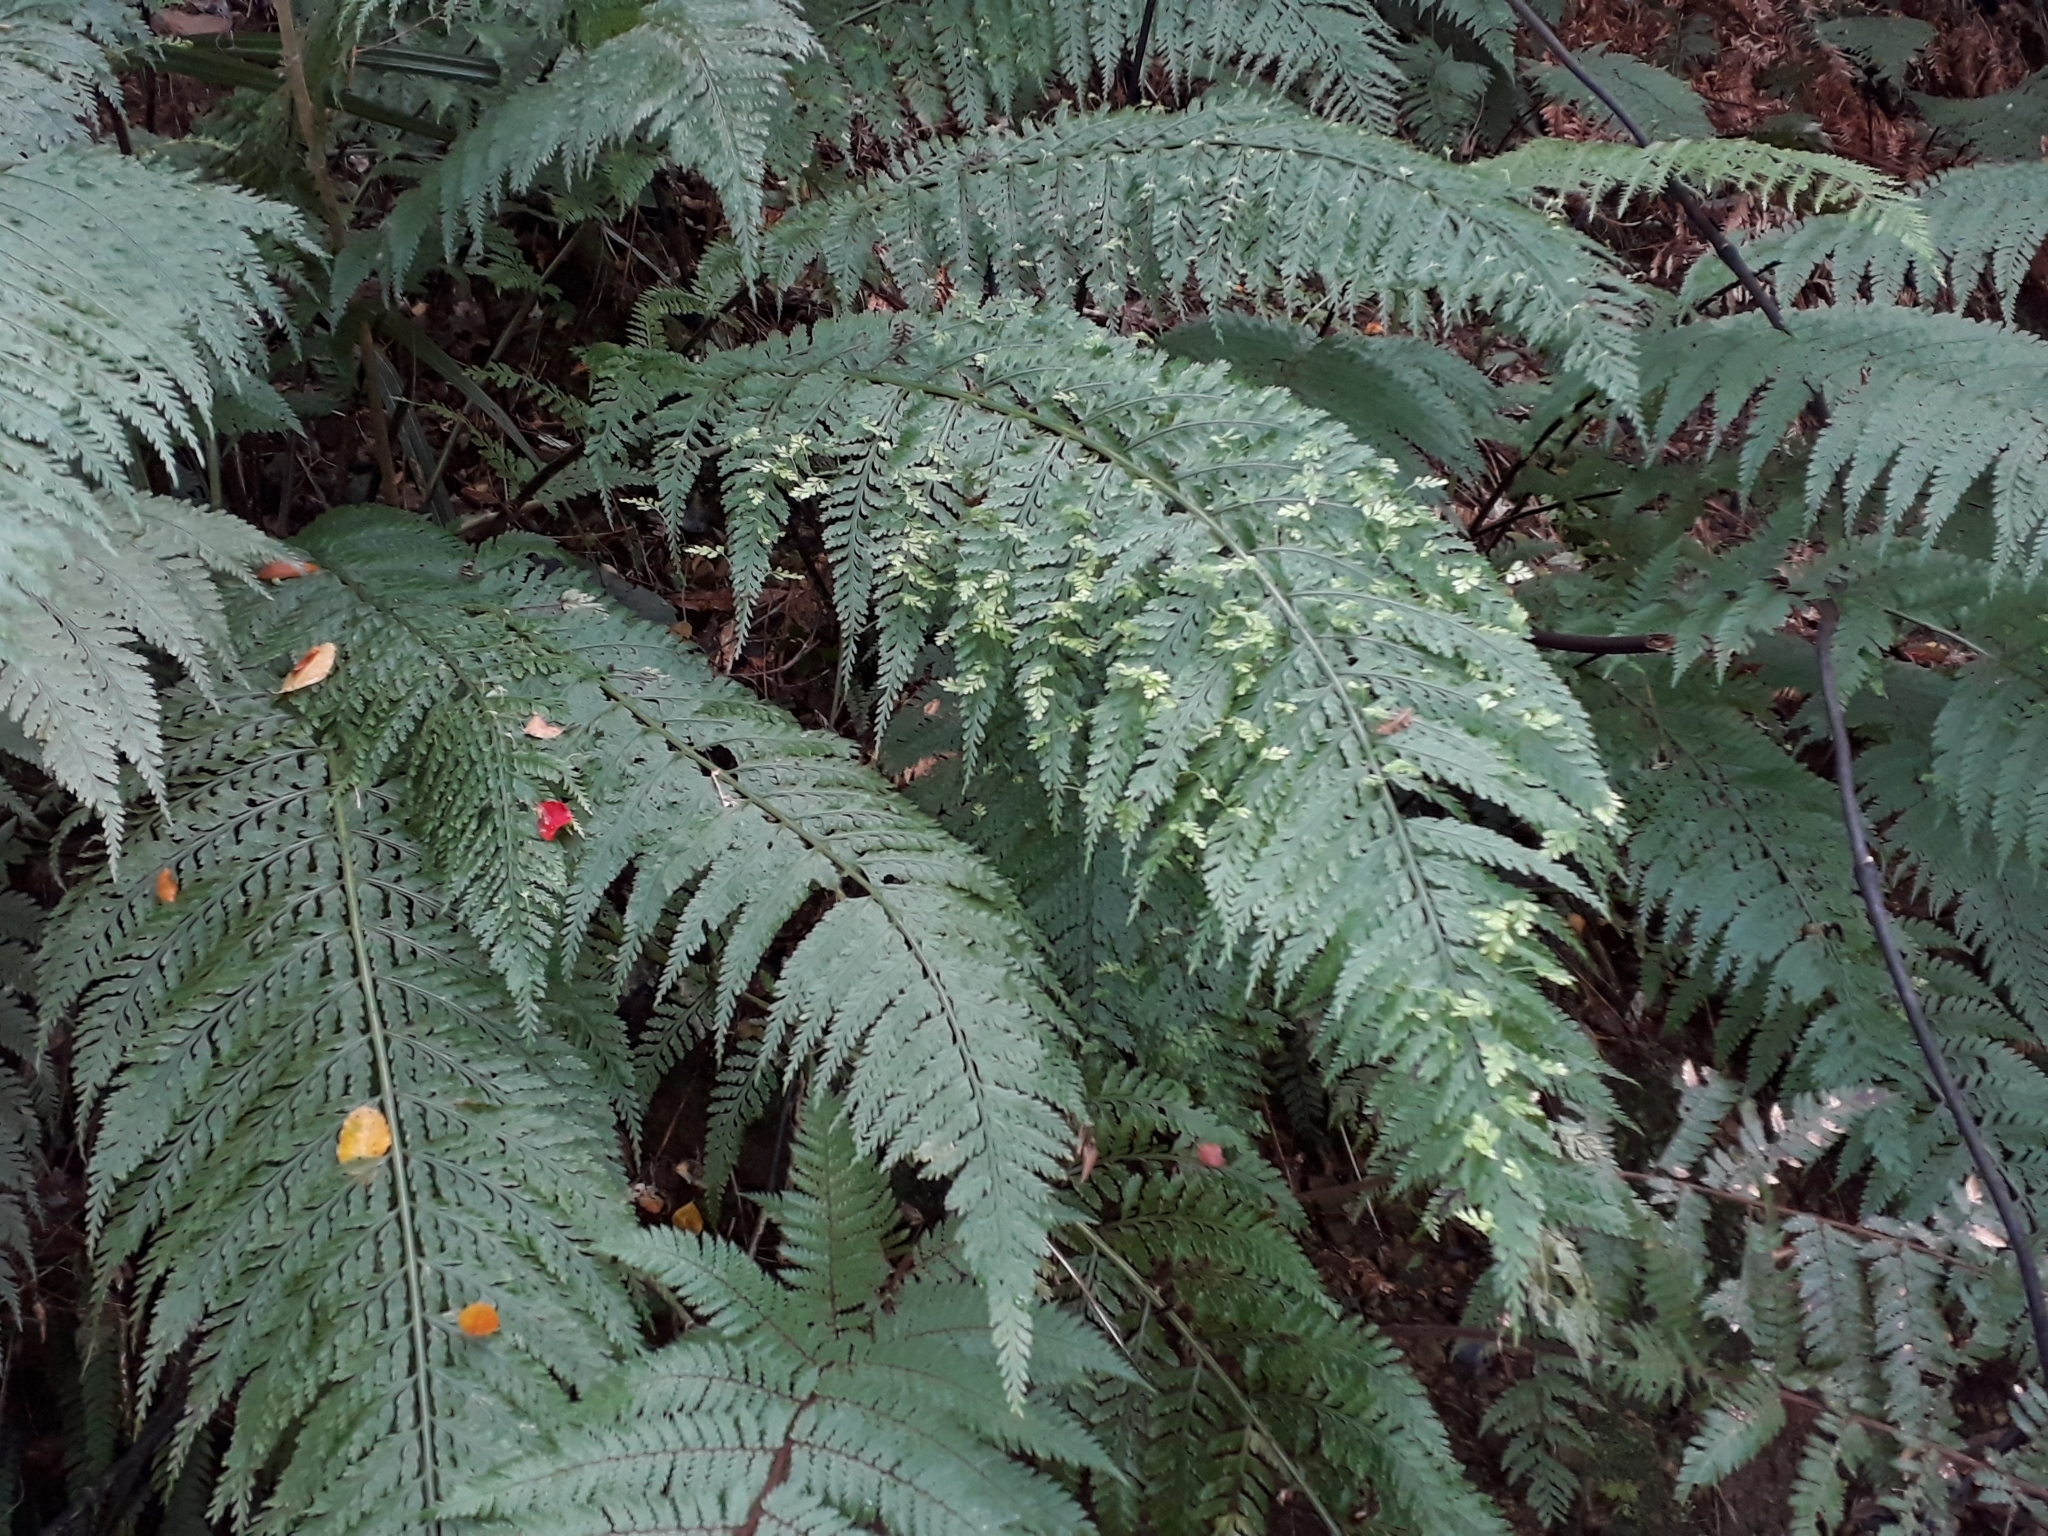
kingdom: Plantae
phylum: Tracheophyta
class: Polypodiopsida
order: Polypodiales
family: Aspleniaceae
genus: Asplenium
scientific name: Asplenium bulbiferum
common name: Mother fern
